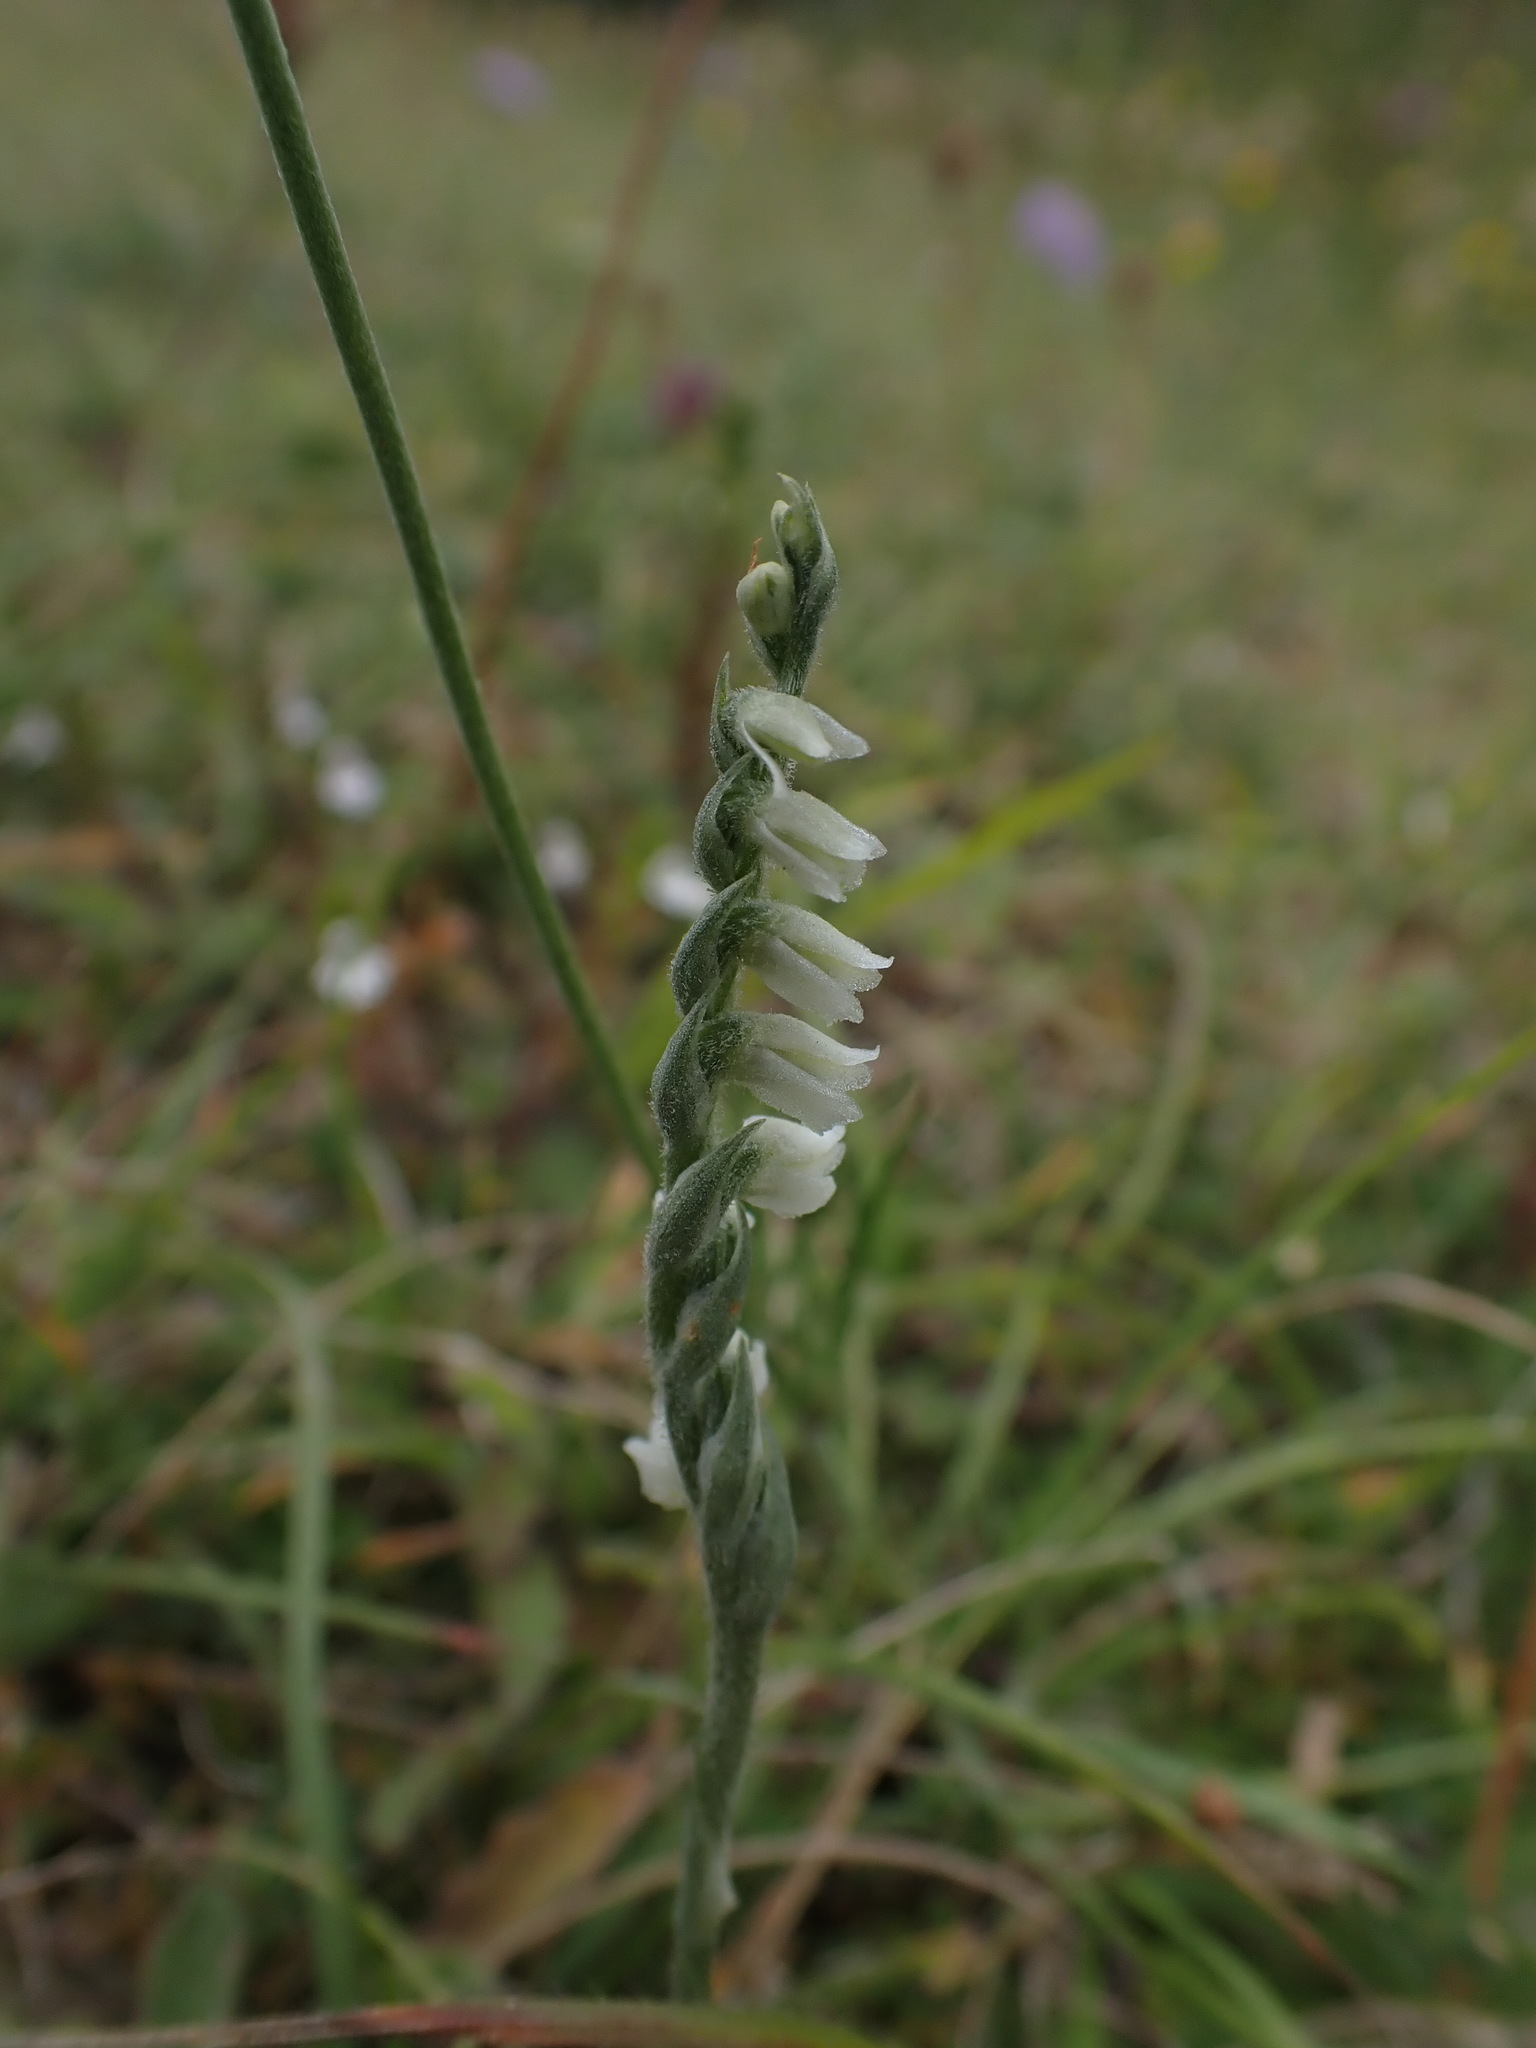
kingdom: Plantae
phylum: Tracheophyta
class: Liliopsida
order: Asparagales
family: Orchidaceae
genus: Spiranthes
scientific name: Spiranthes spiralis
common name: Autumn lady's-tresses
